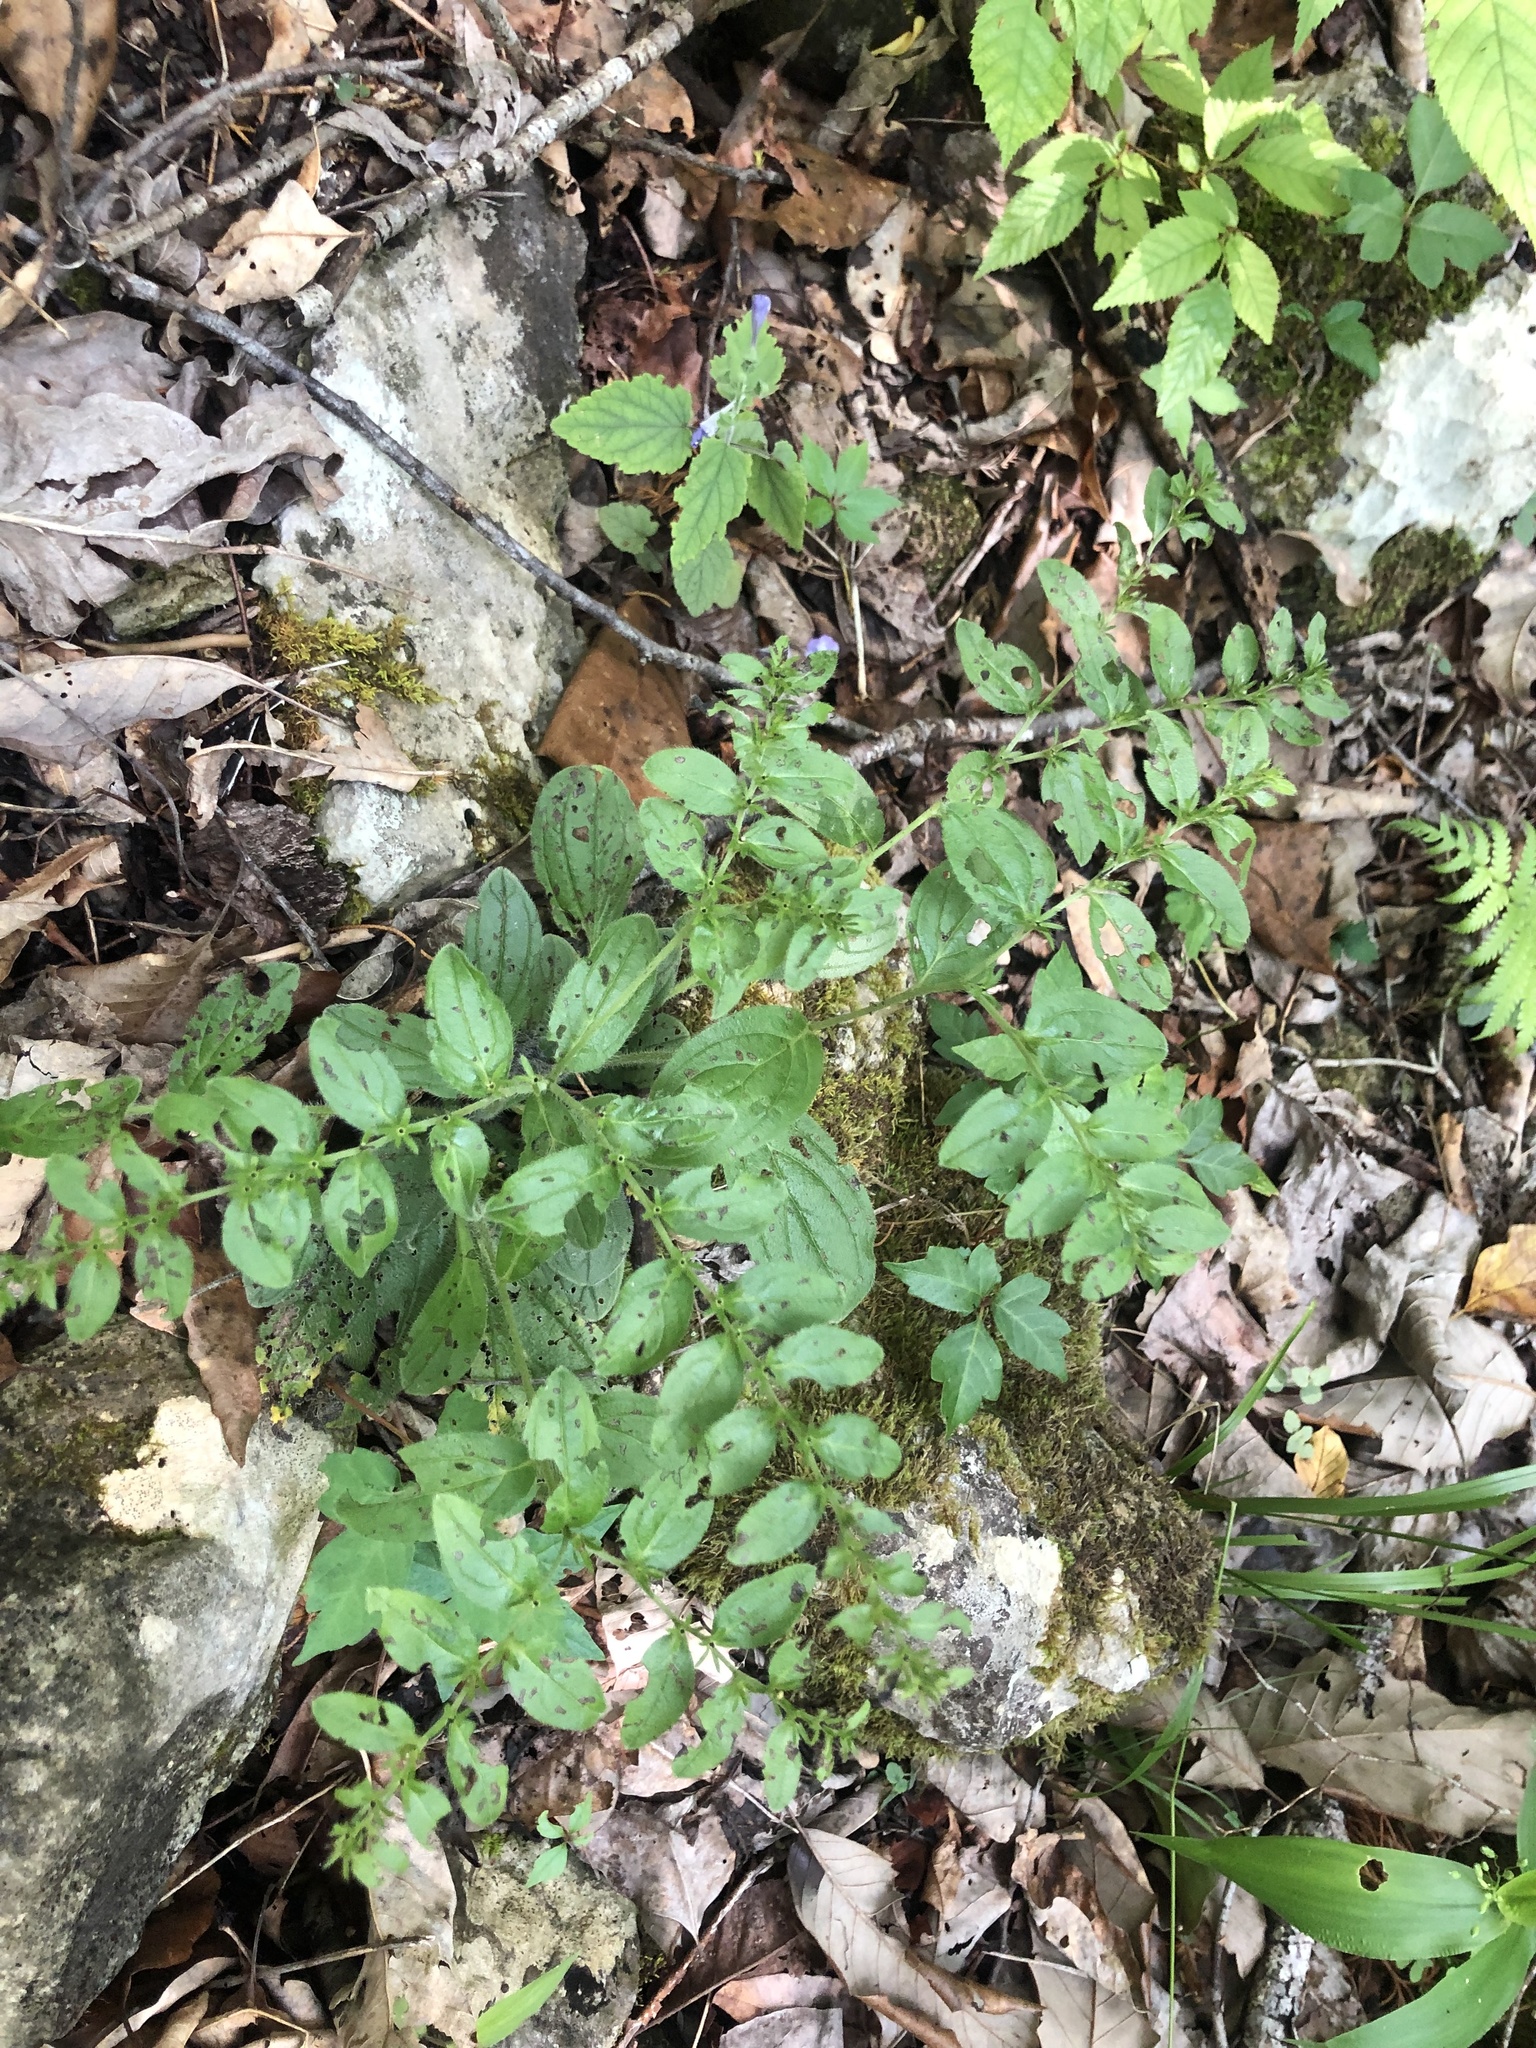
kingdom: Plantae
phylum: Tracheophyta
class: Magnoliopsida
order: Boraginales
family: Boraginaceae
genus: Lithospermum
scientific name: Lithospermum tuberosum
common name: Southern stoneseed
